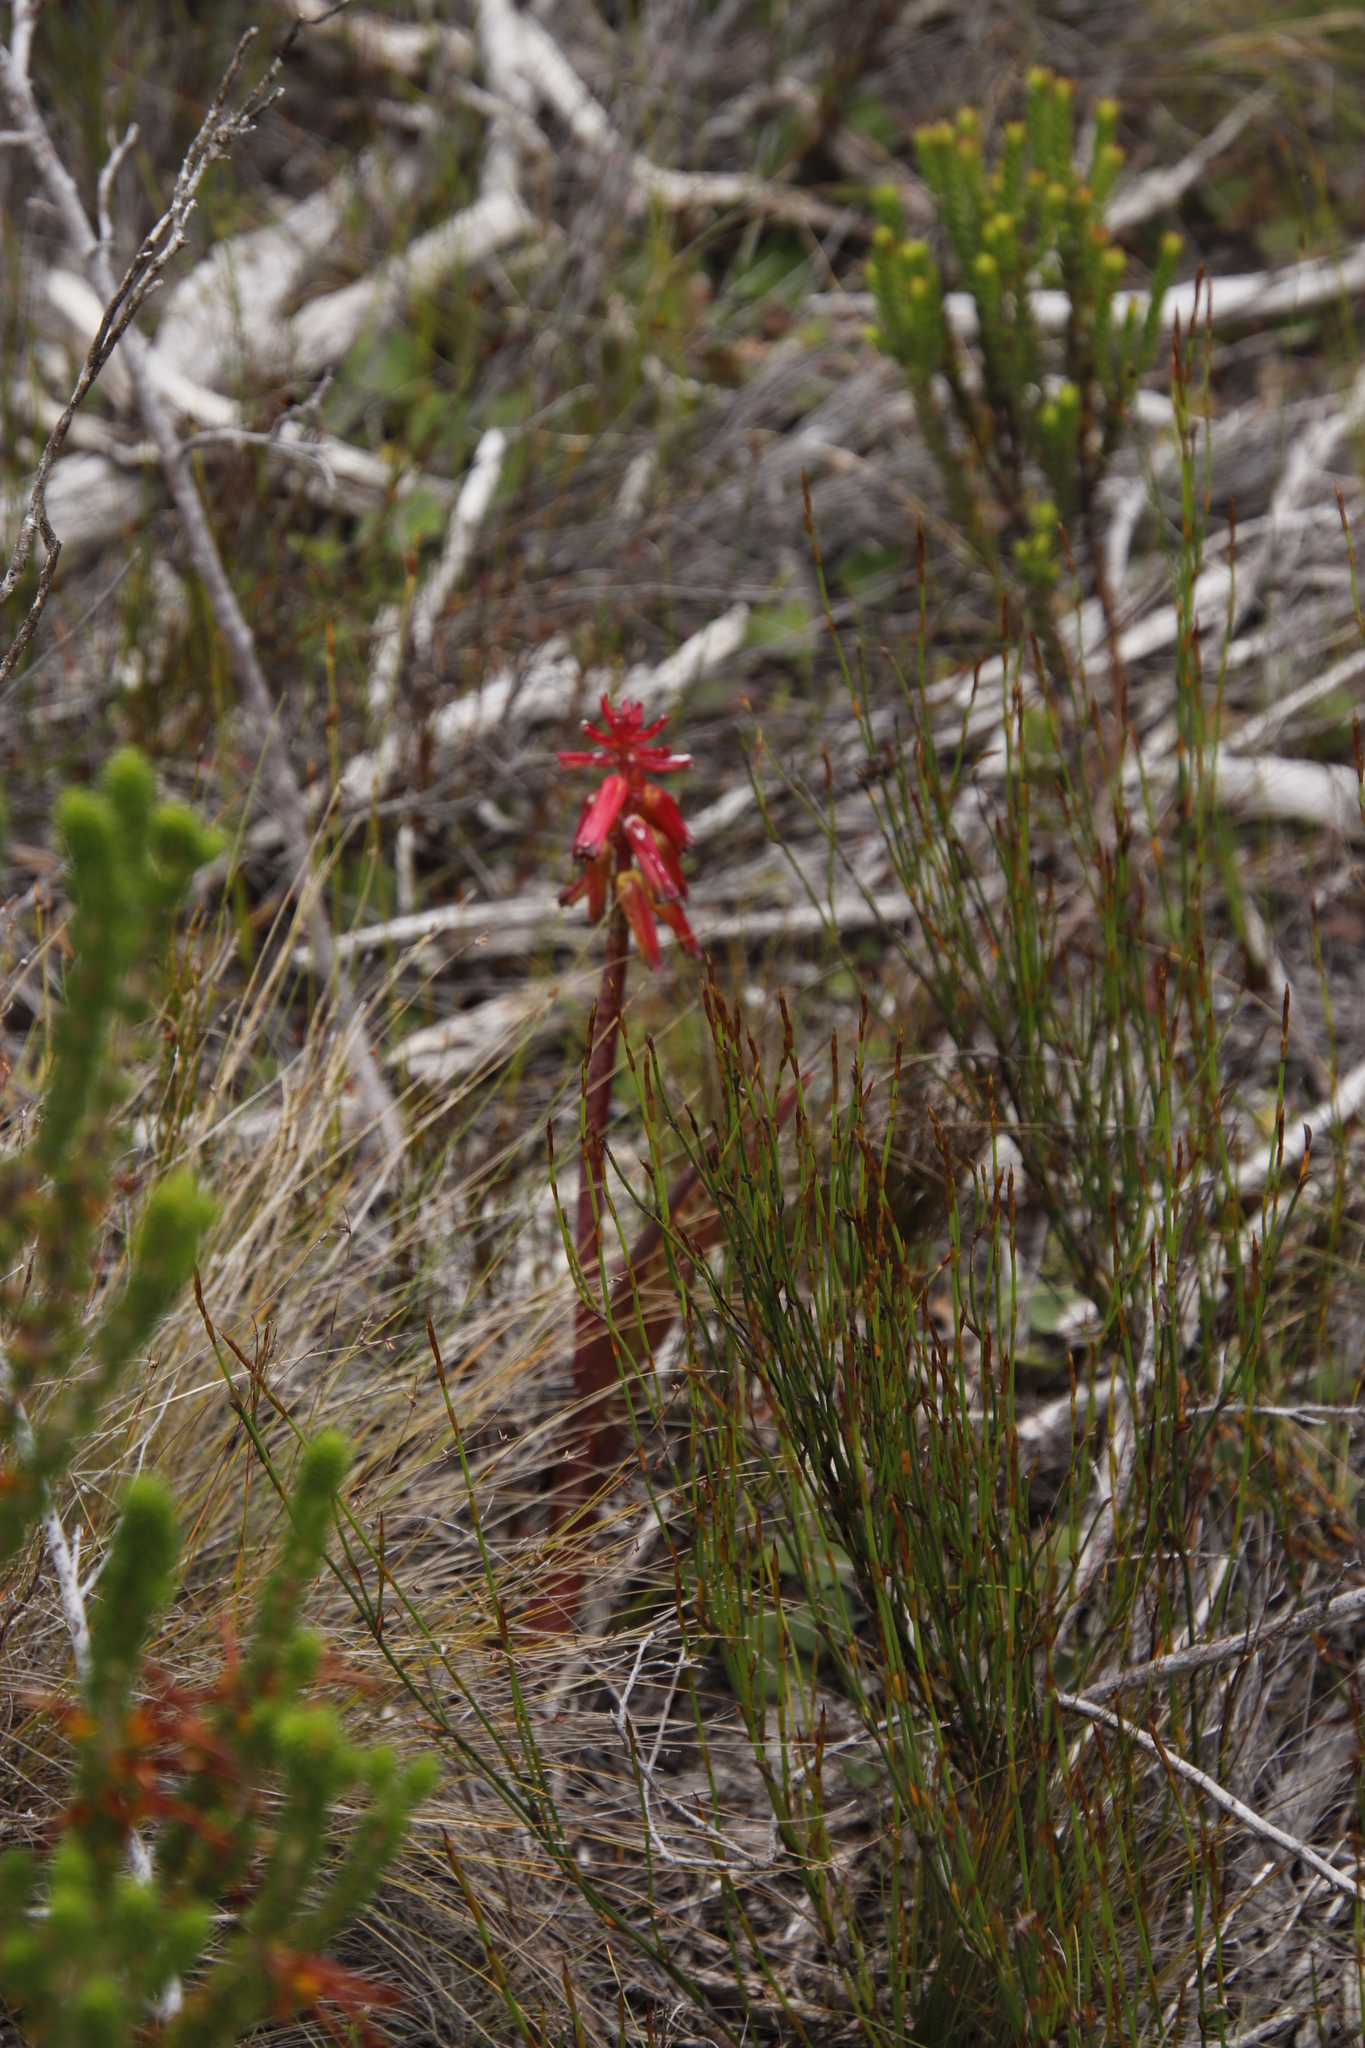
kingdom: Plantae
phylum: Tracheophyta
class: Liliopsida
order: Asparagales
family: Asparagaceae
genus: Lachenalia
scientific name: Lachenalia bulbifera
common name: Red lachenalia
